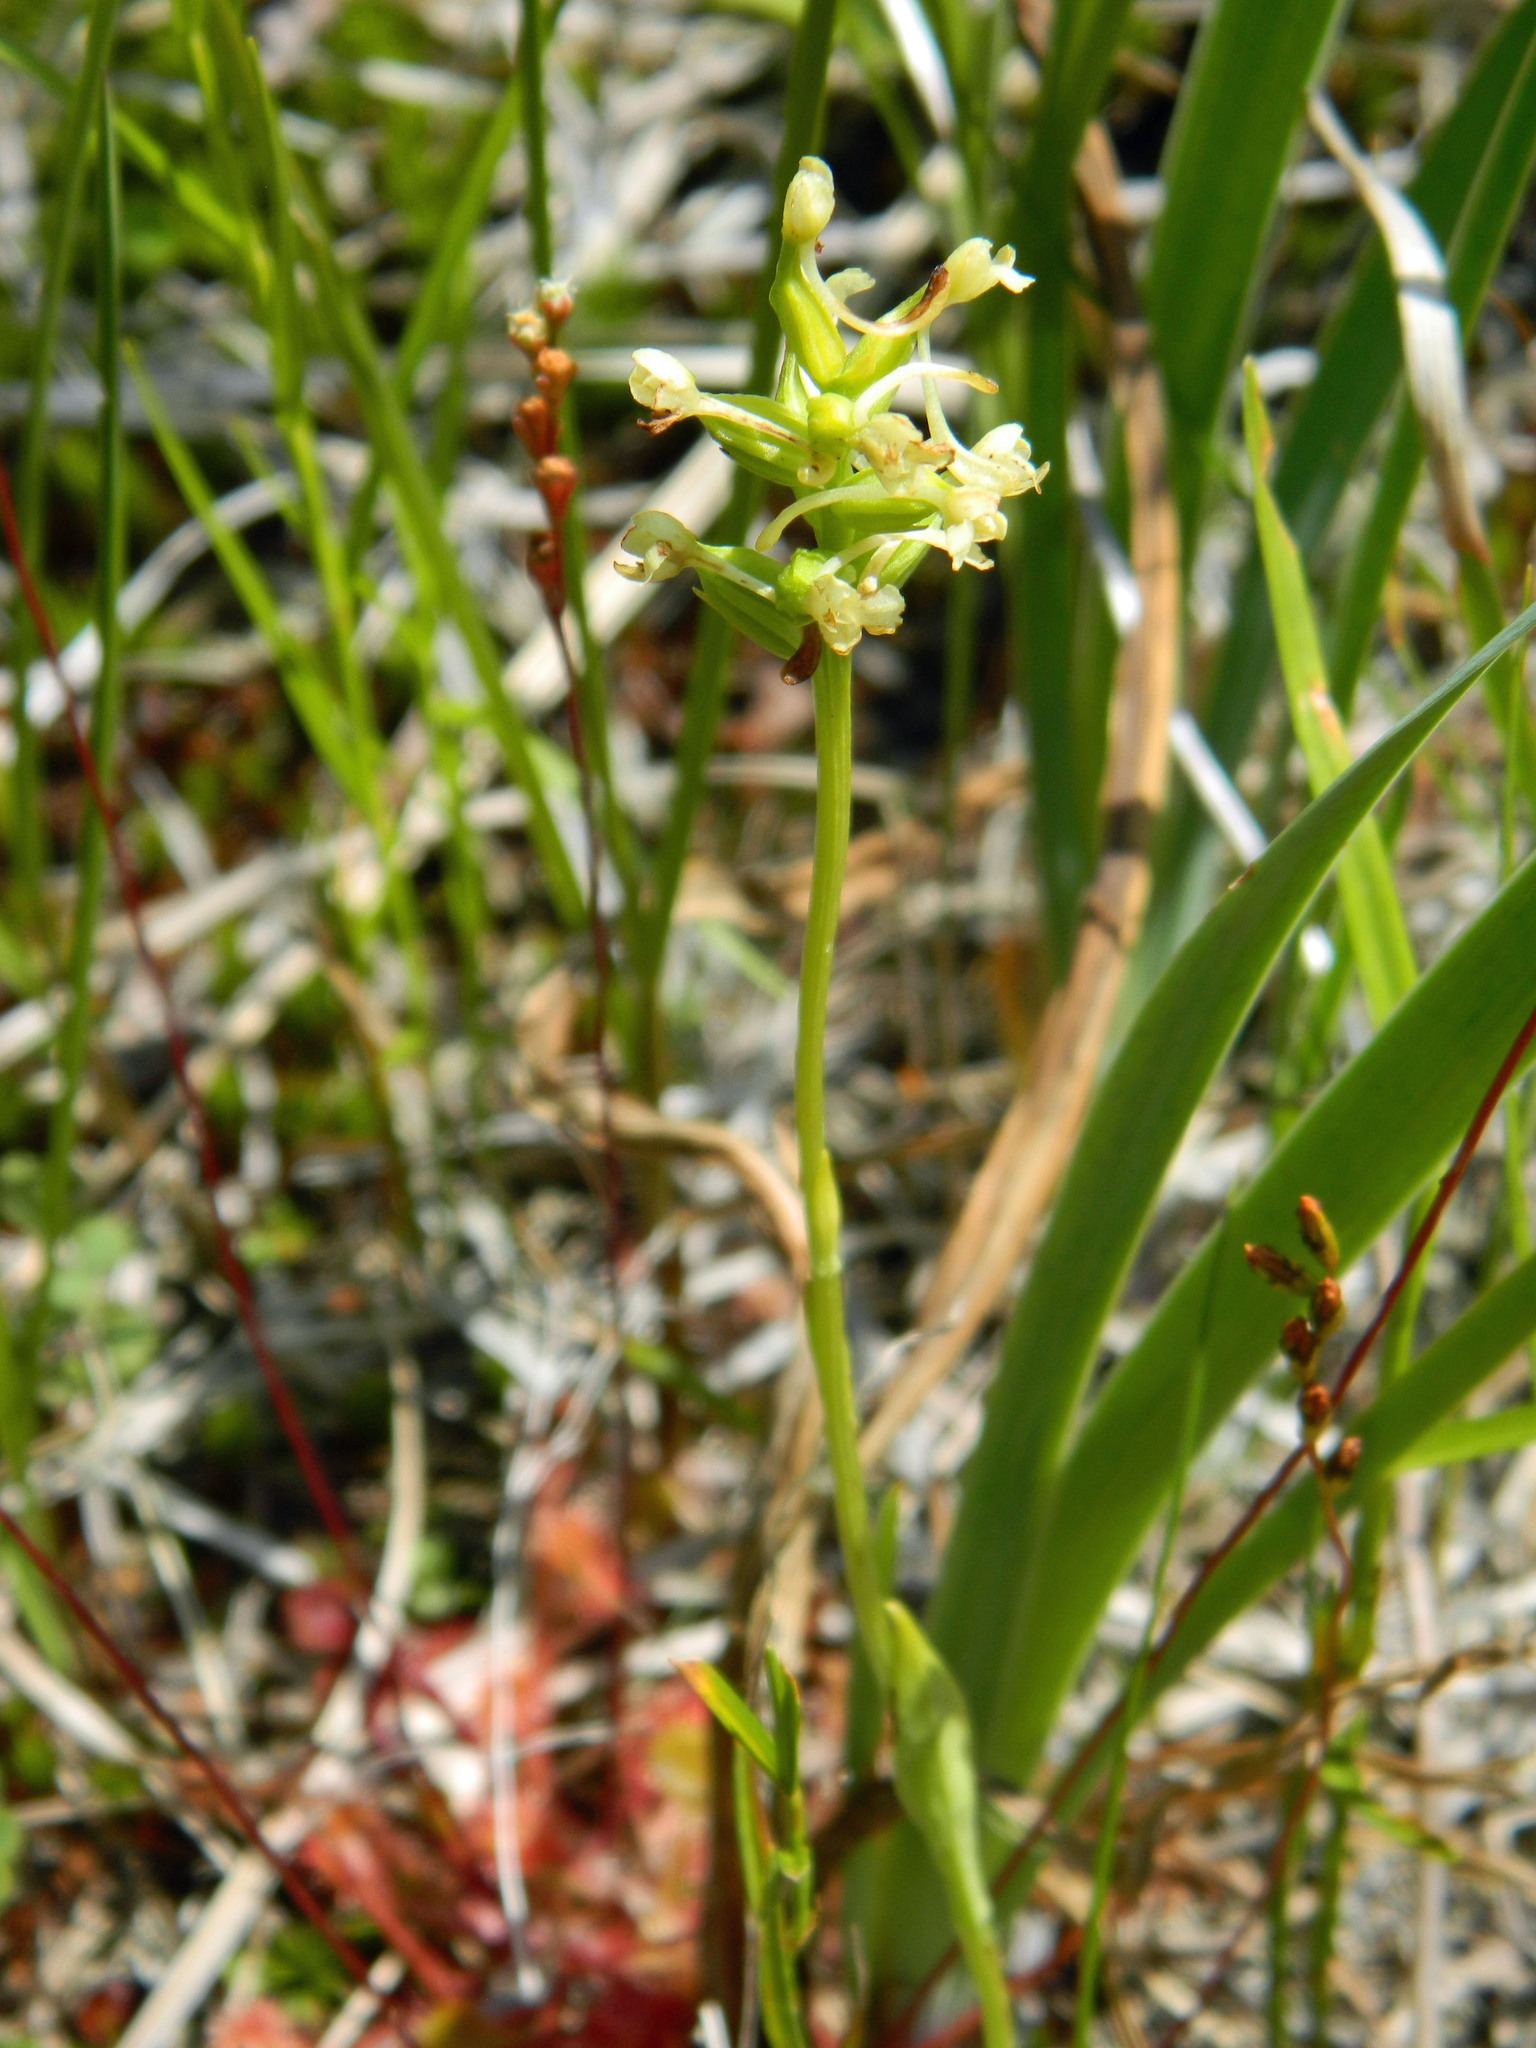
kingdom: Plantae
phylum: Tracheophyta
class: Liliopsida
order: Asparagales
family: Orchidaceae
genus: Platanthera
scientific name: Platanthera clavellata
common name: Club-spur orchid
